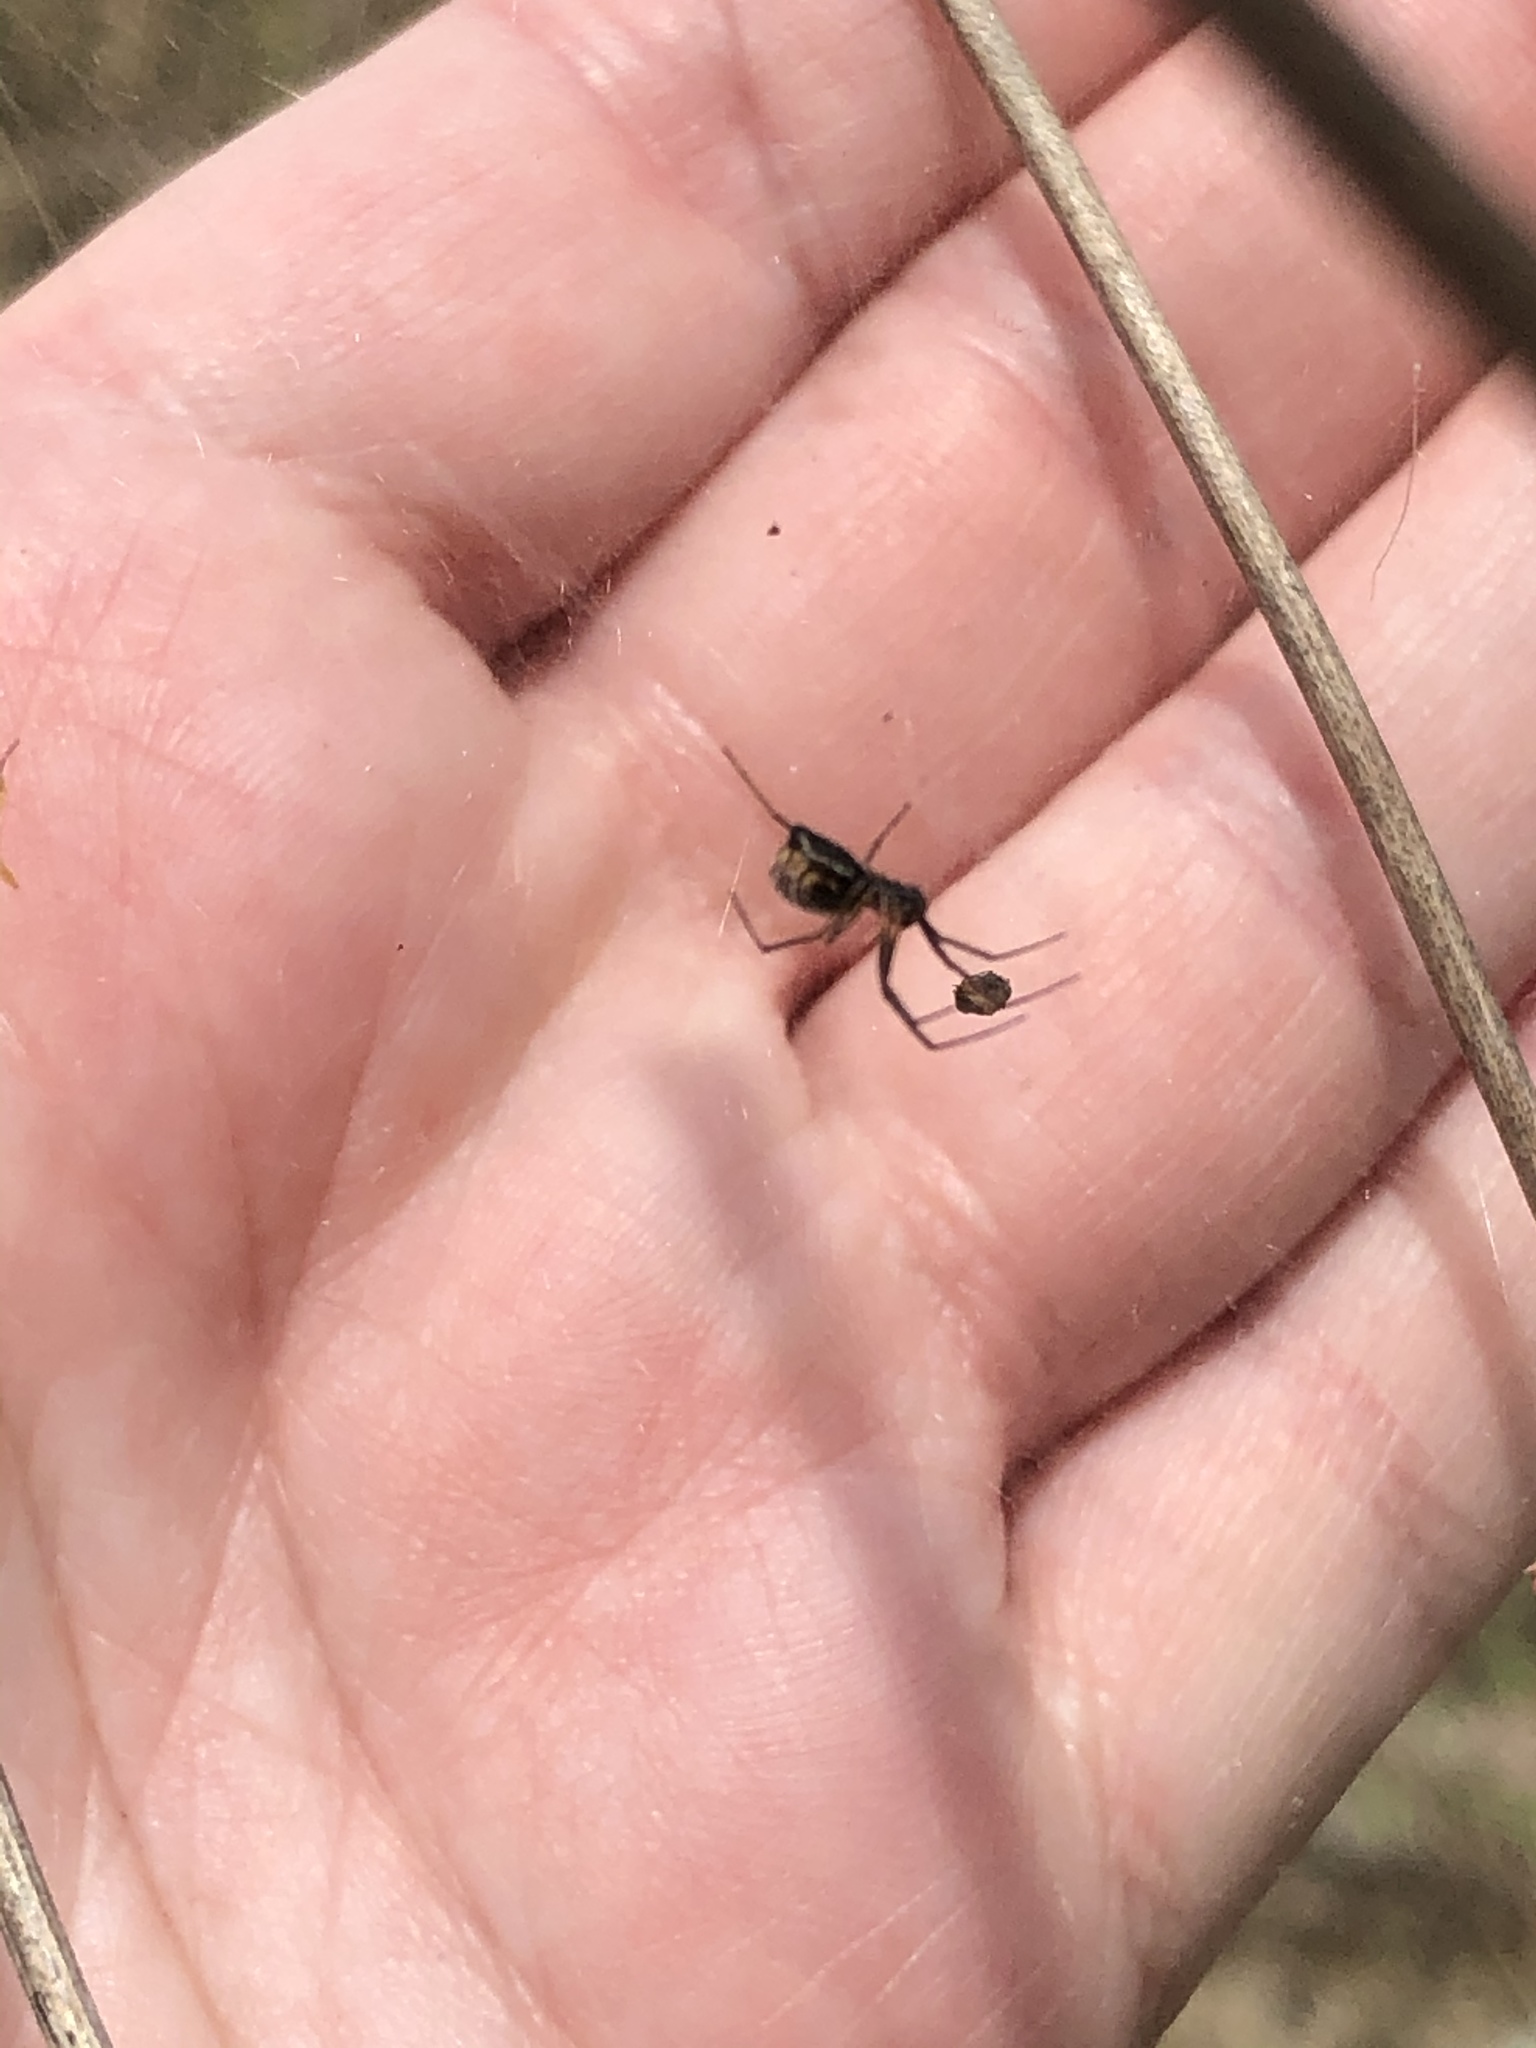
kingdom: Animalia
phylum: Arthropoda
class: Arachnida
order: Araneae
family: Linyphiidae
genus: Frontinella
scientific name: Frontinella pyramitela
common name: Bowl-and-doily spider
